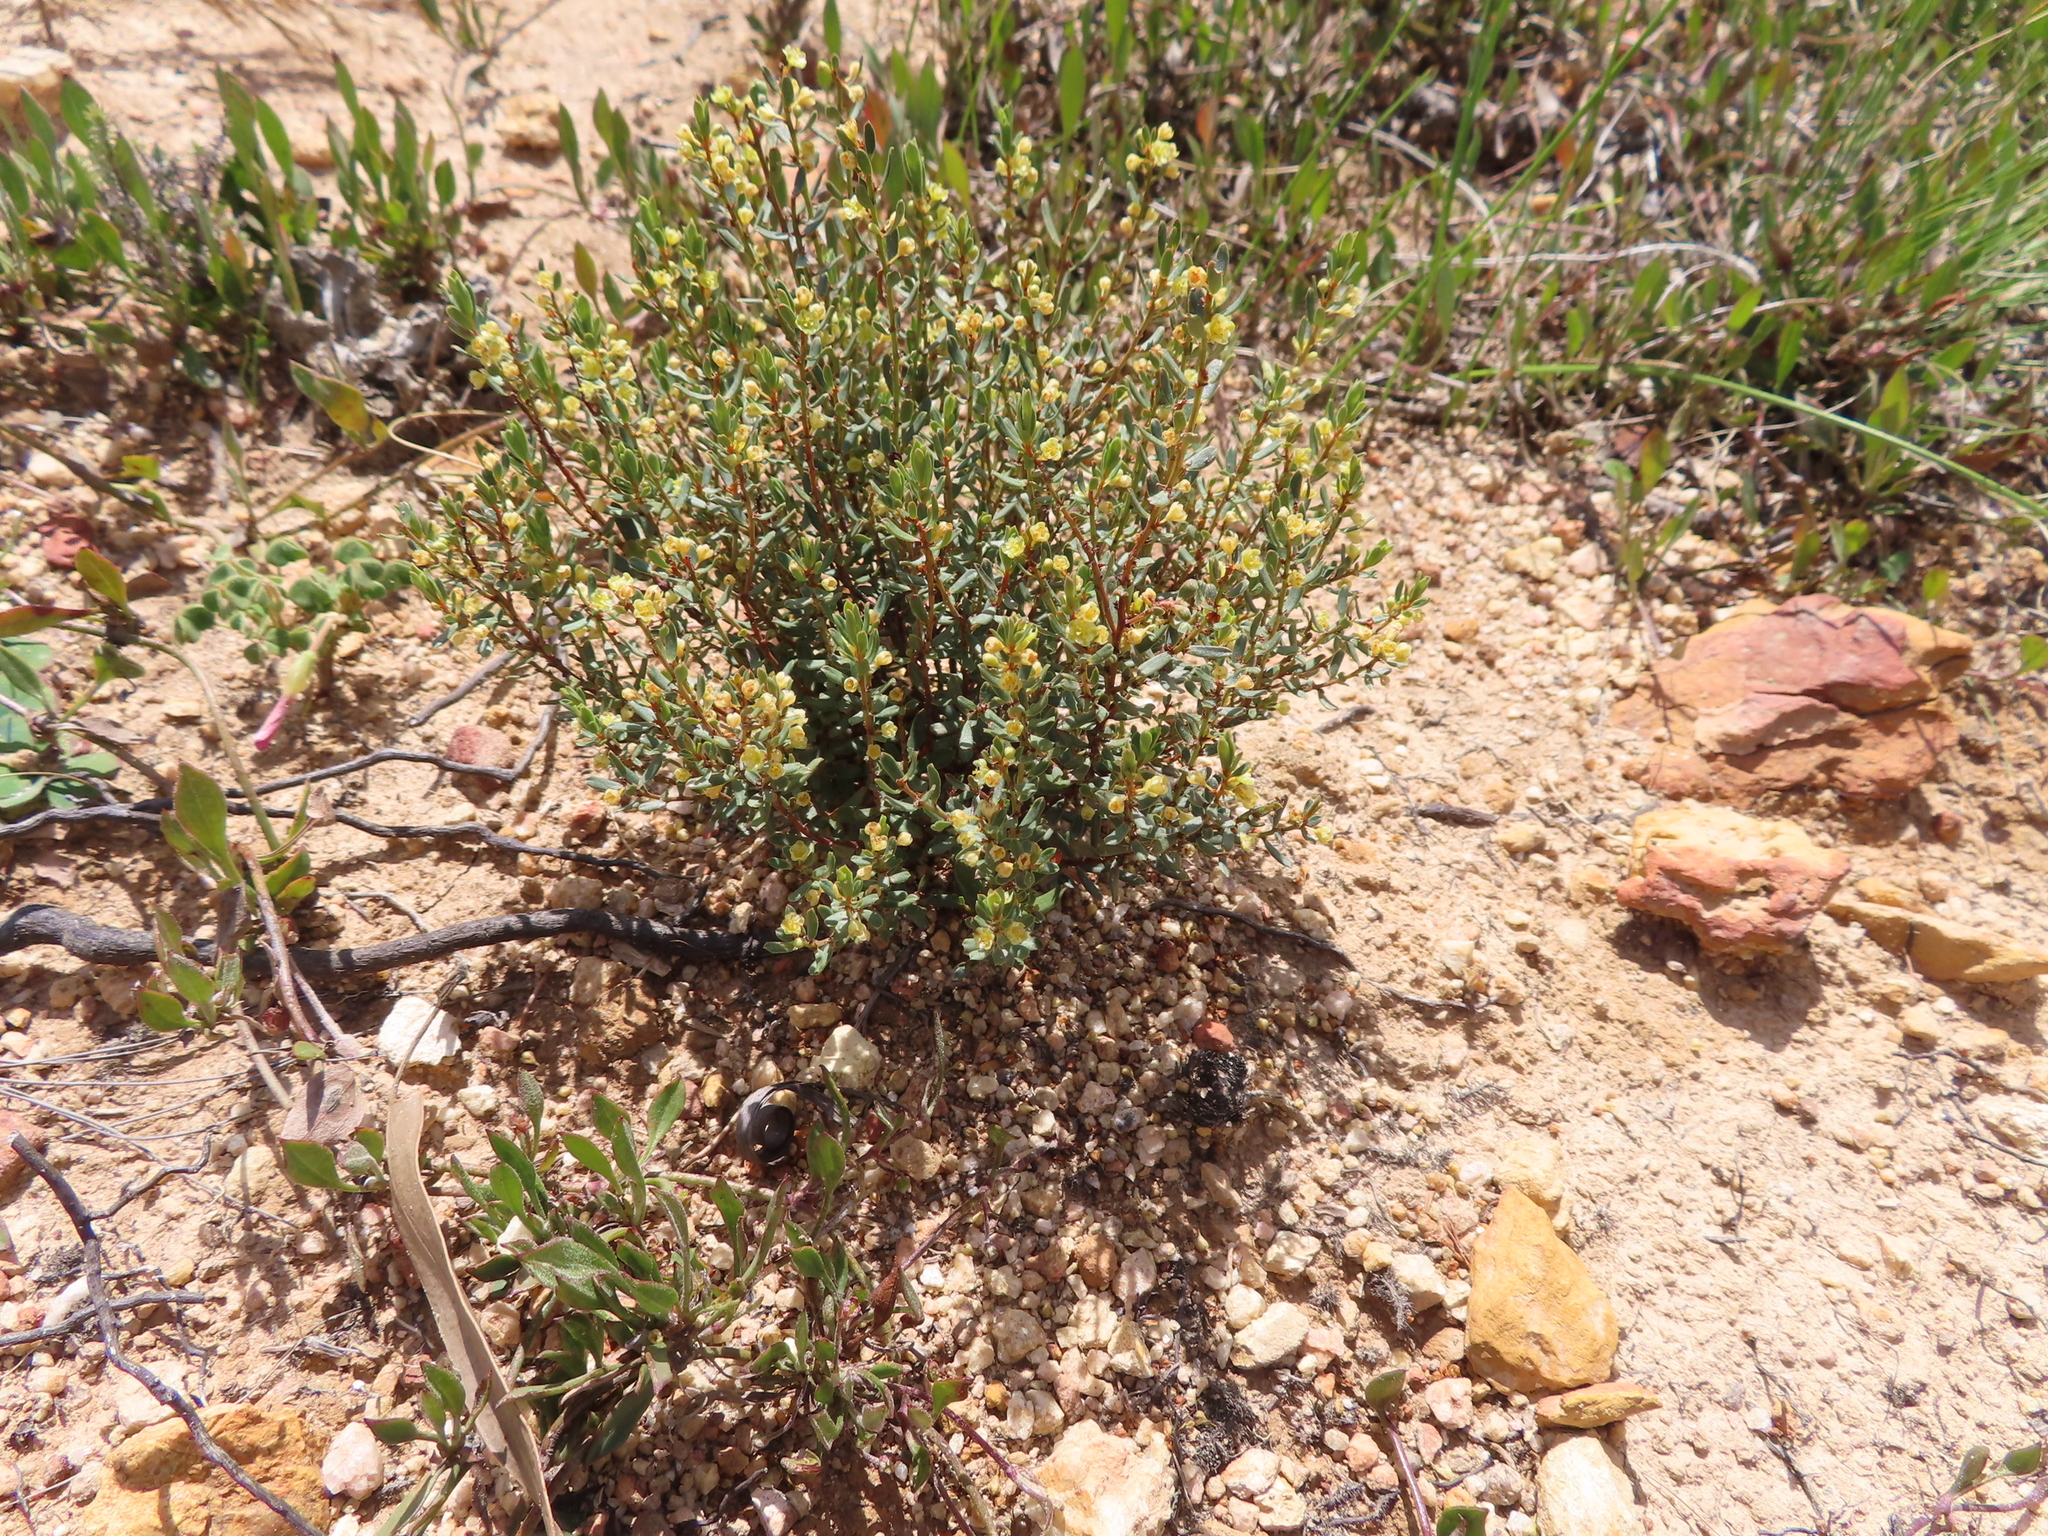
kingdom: Plantae
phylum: Tracheophyta
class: Magnoliopsida
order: Malpighiales
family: Peraceae
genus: Clutia
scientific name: Clutia polygonoides
